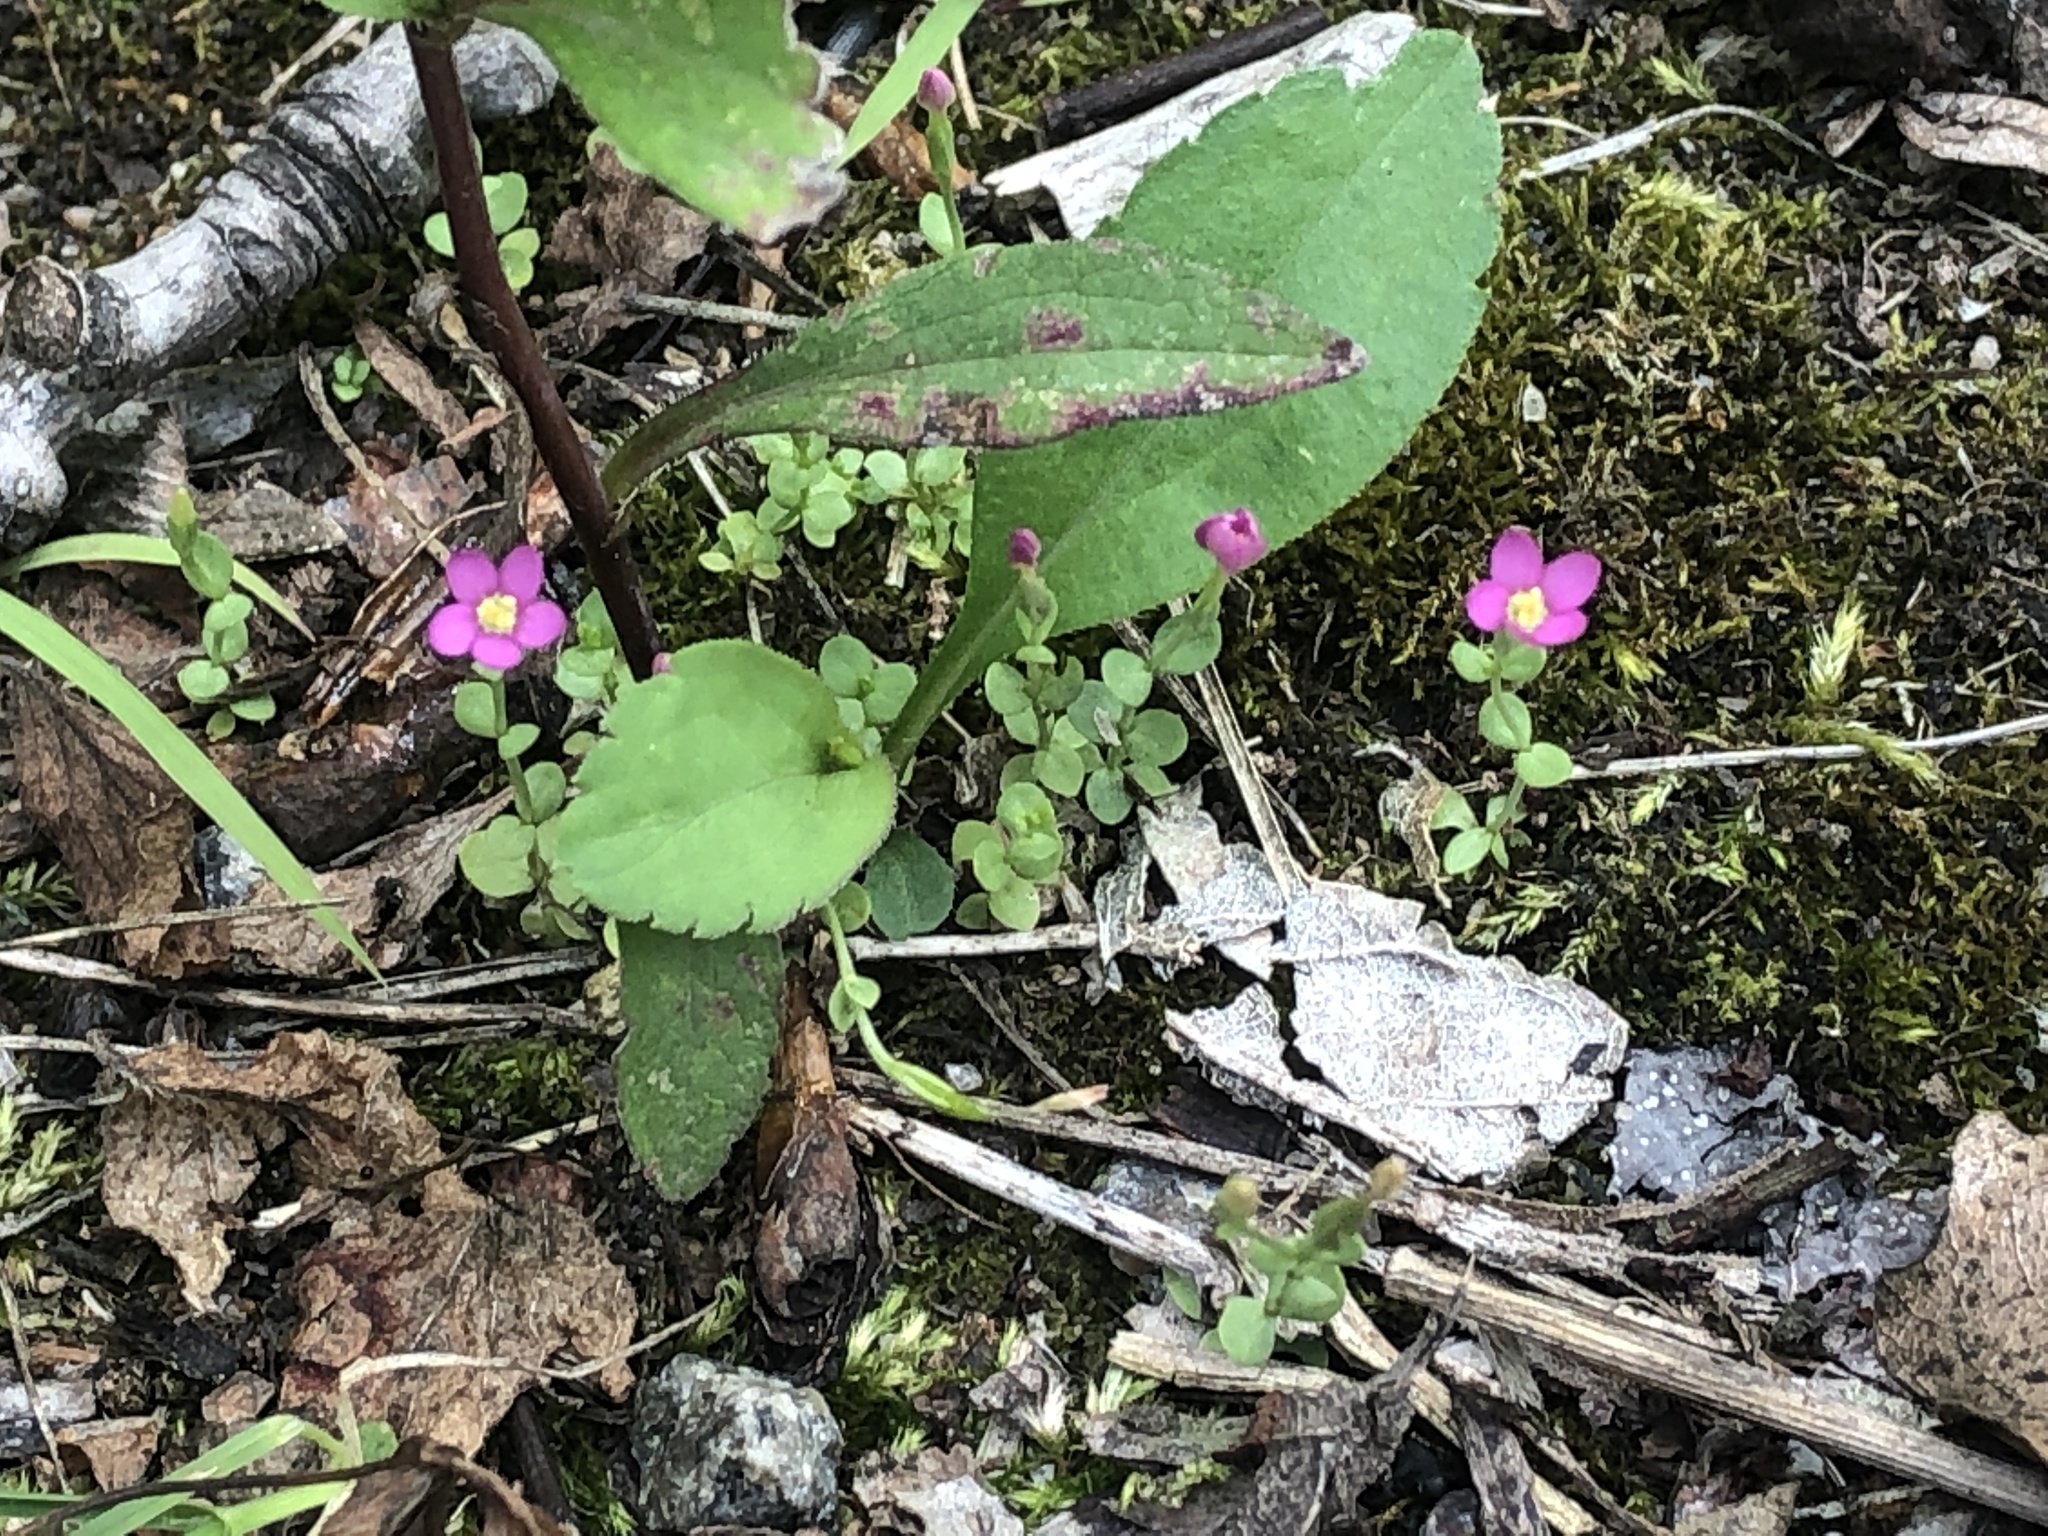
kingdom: Plantae
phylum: Tracheophyta
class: Magnoliopsida
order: Gentianales
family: Gentianaceae
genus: Centaurium
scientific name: Centaurium pulchellum
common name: Lesser centaury
